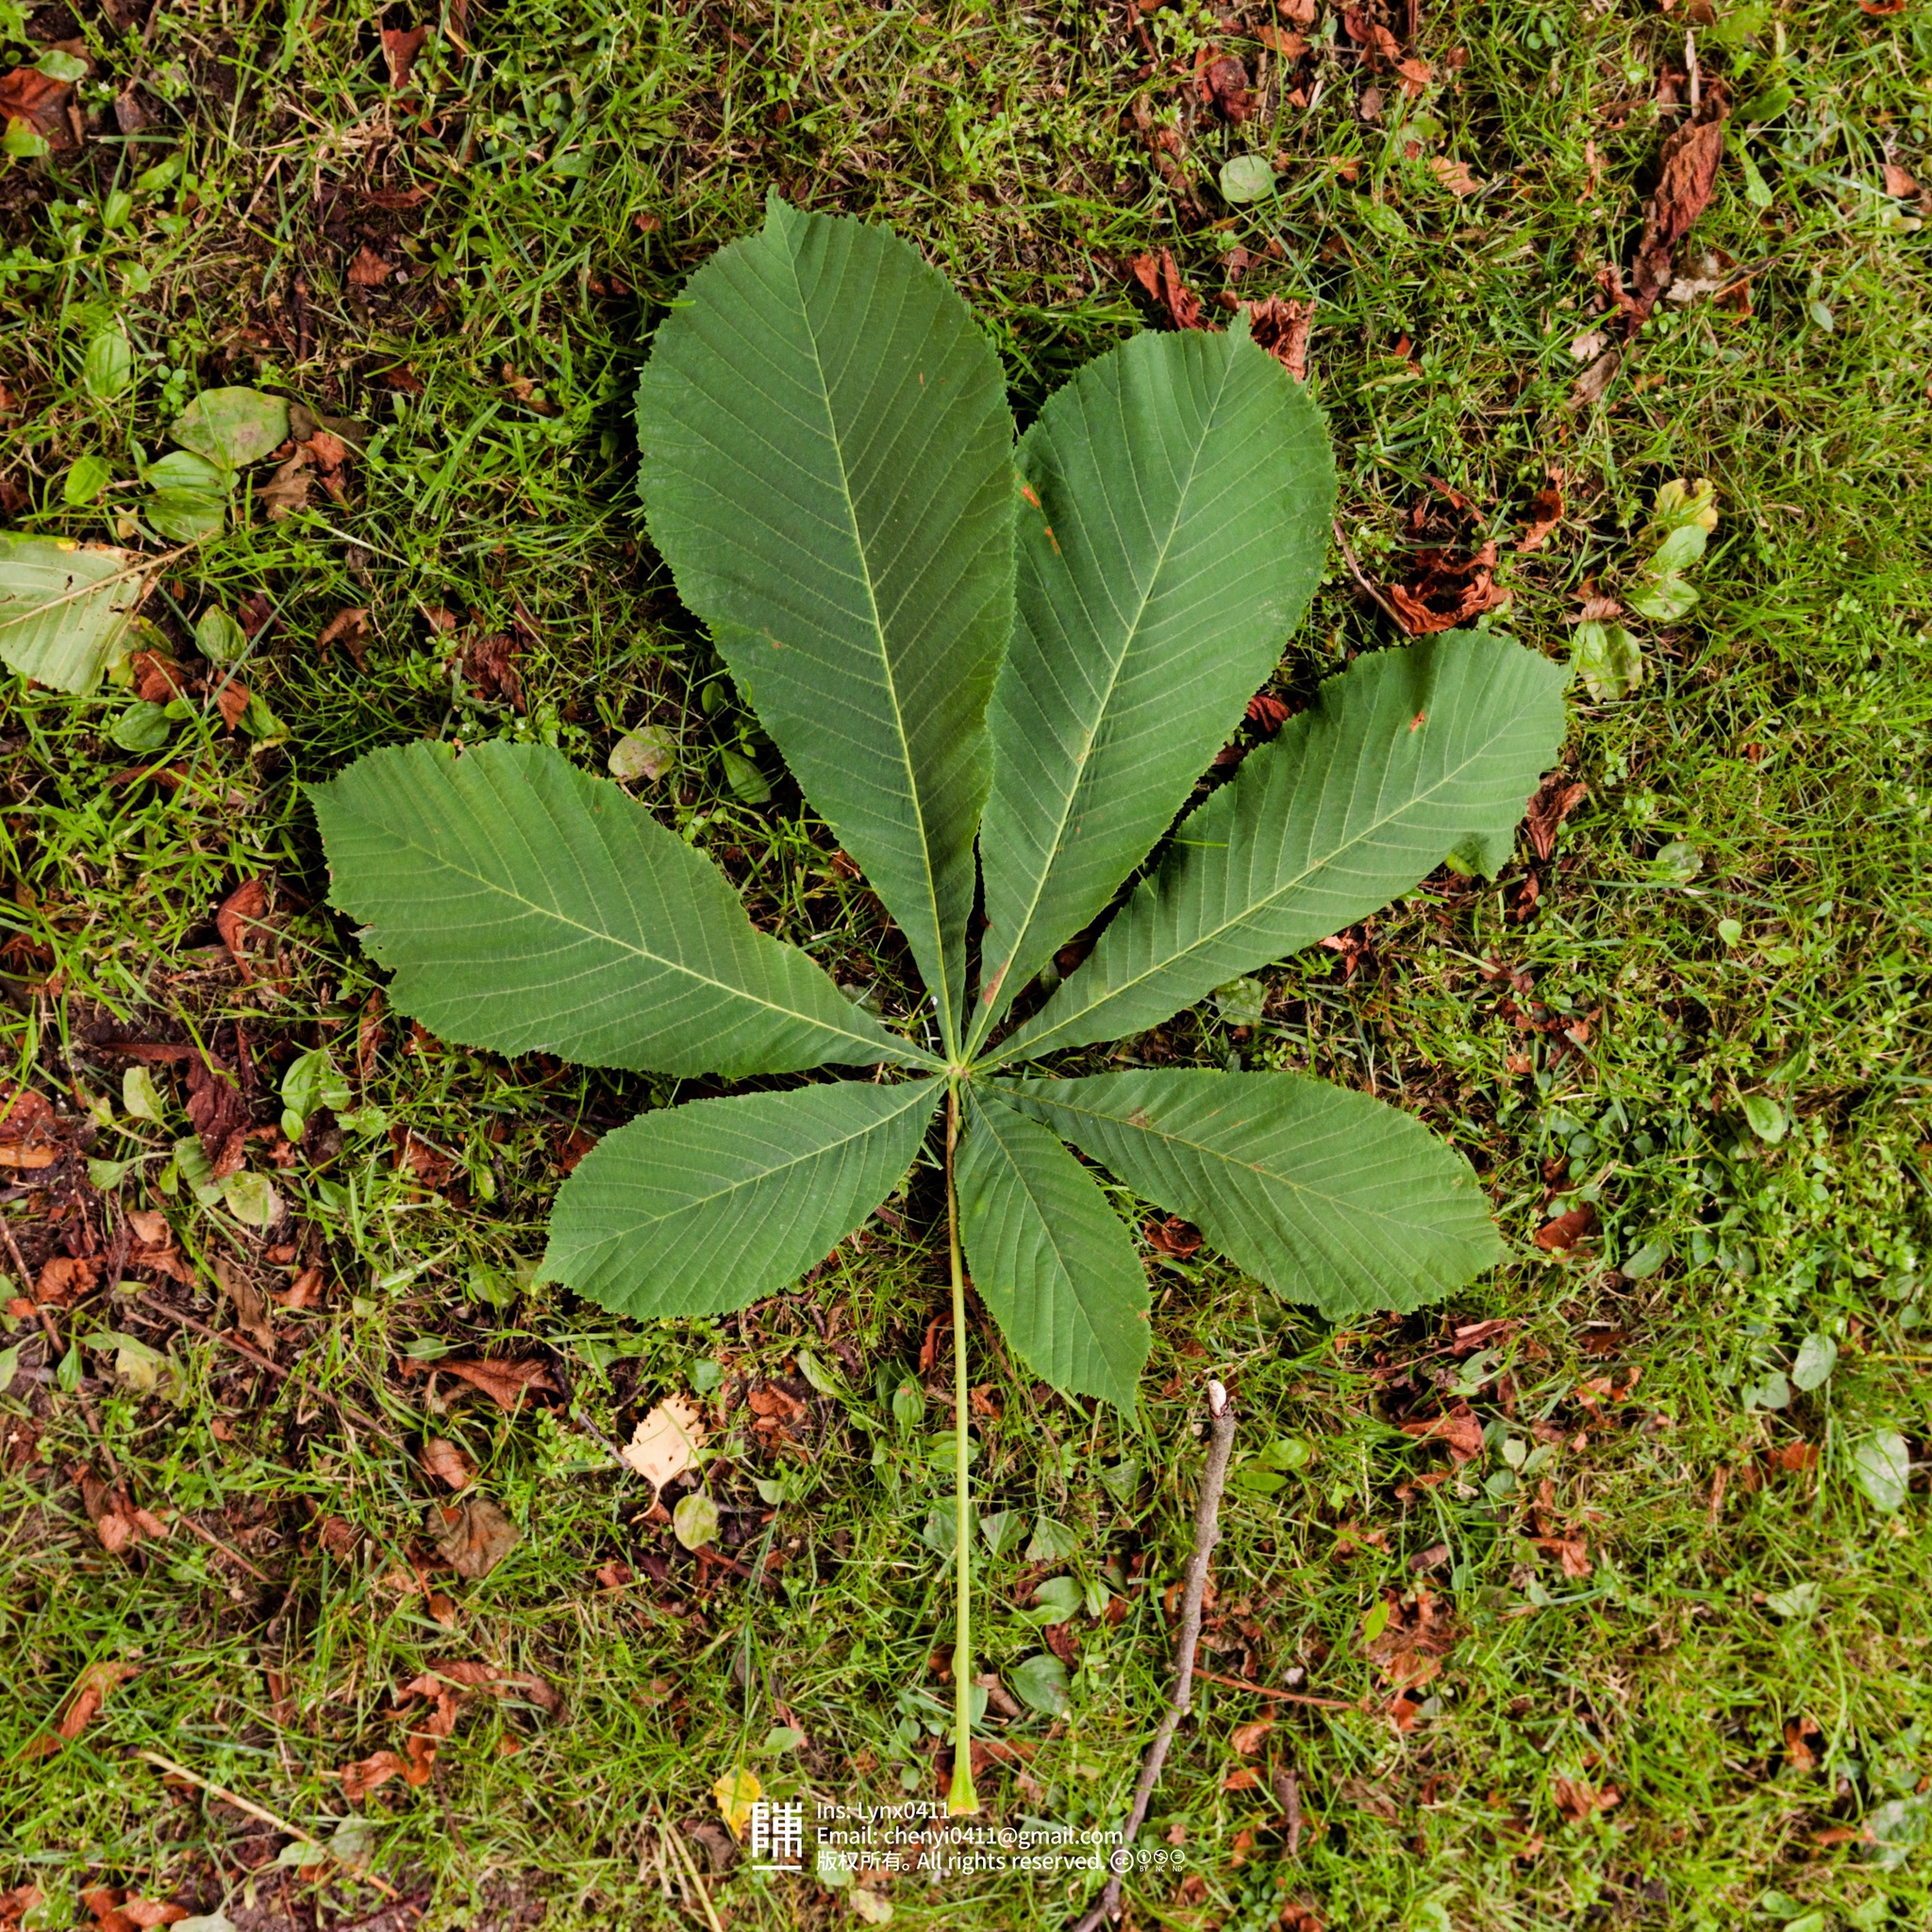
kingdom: Plantae
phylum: Tracheophyta
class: Magnoliopsida
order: Sapindales
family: Sapindaceae
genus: Aesculus
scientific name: Aesculus hippocastanum
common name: Horse-chestnut
